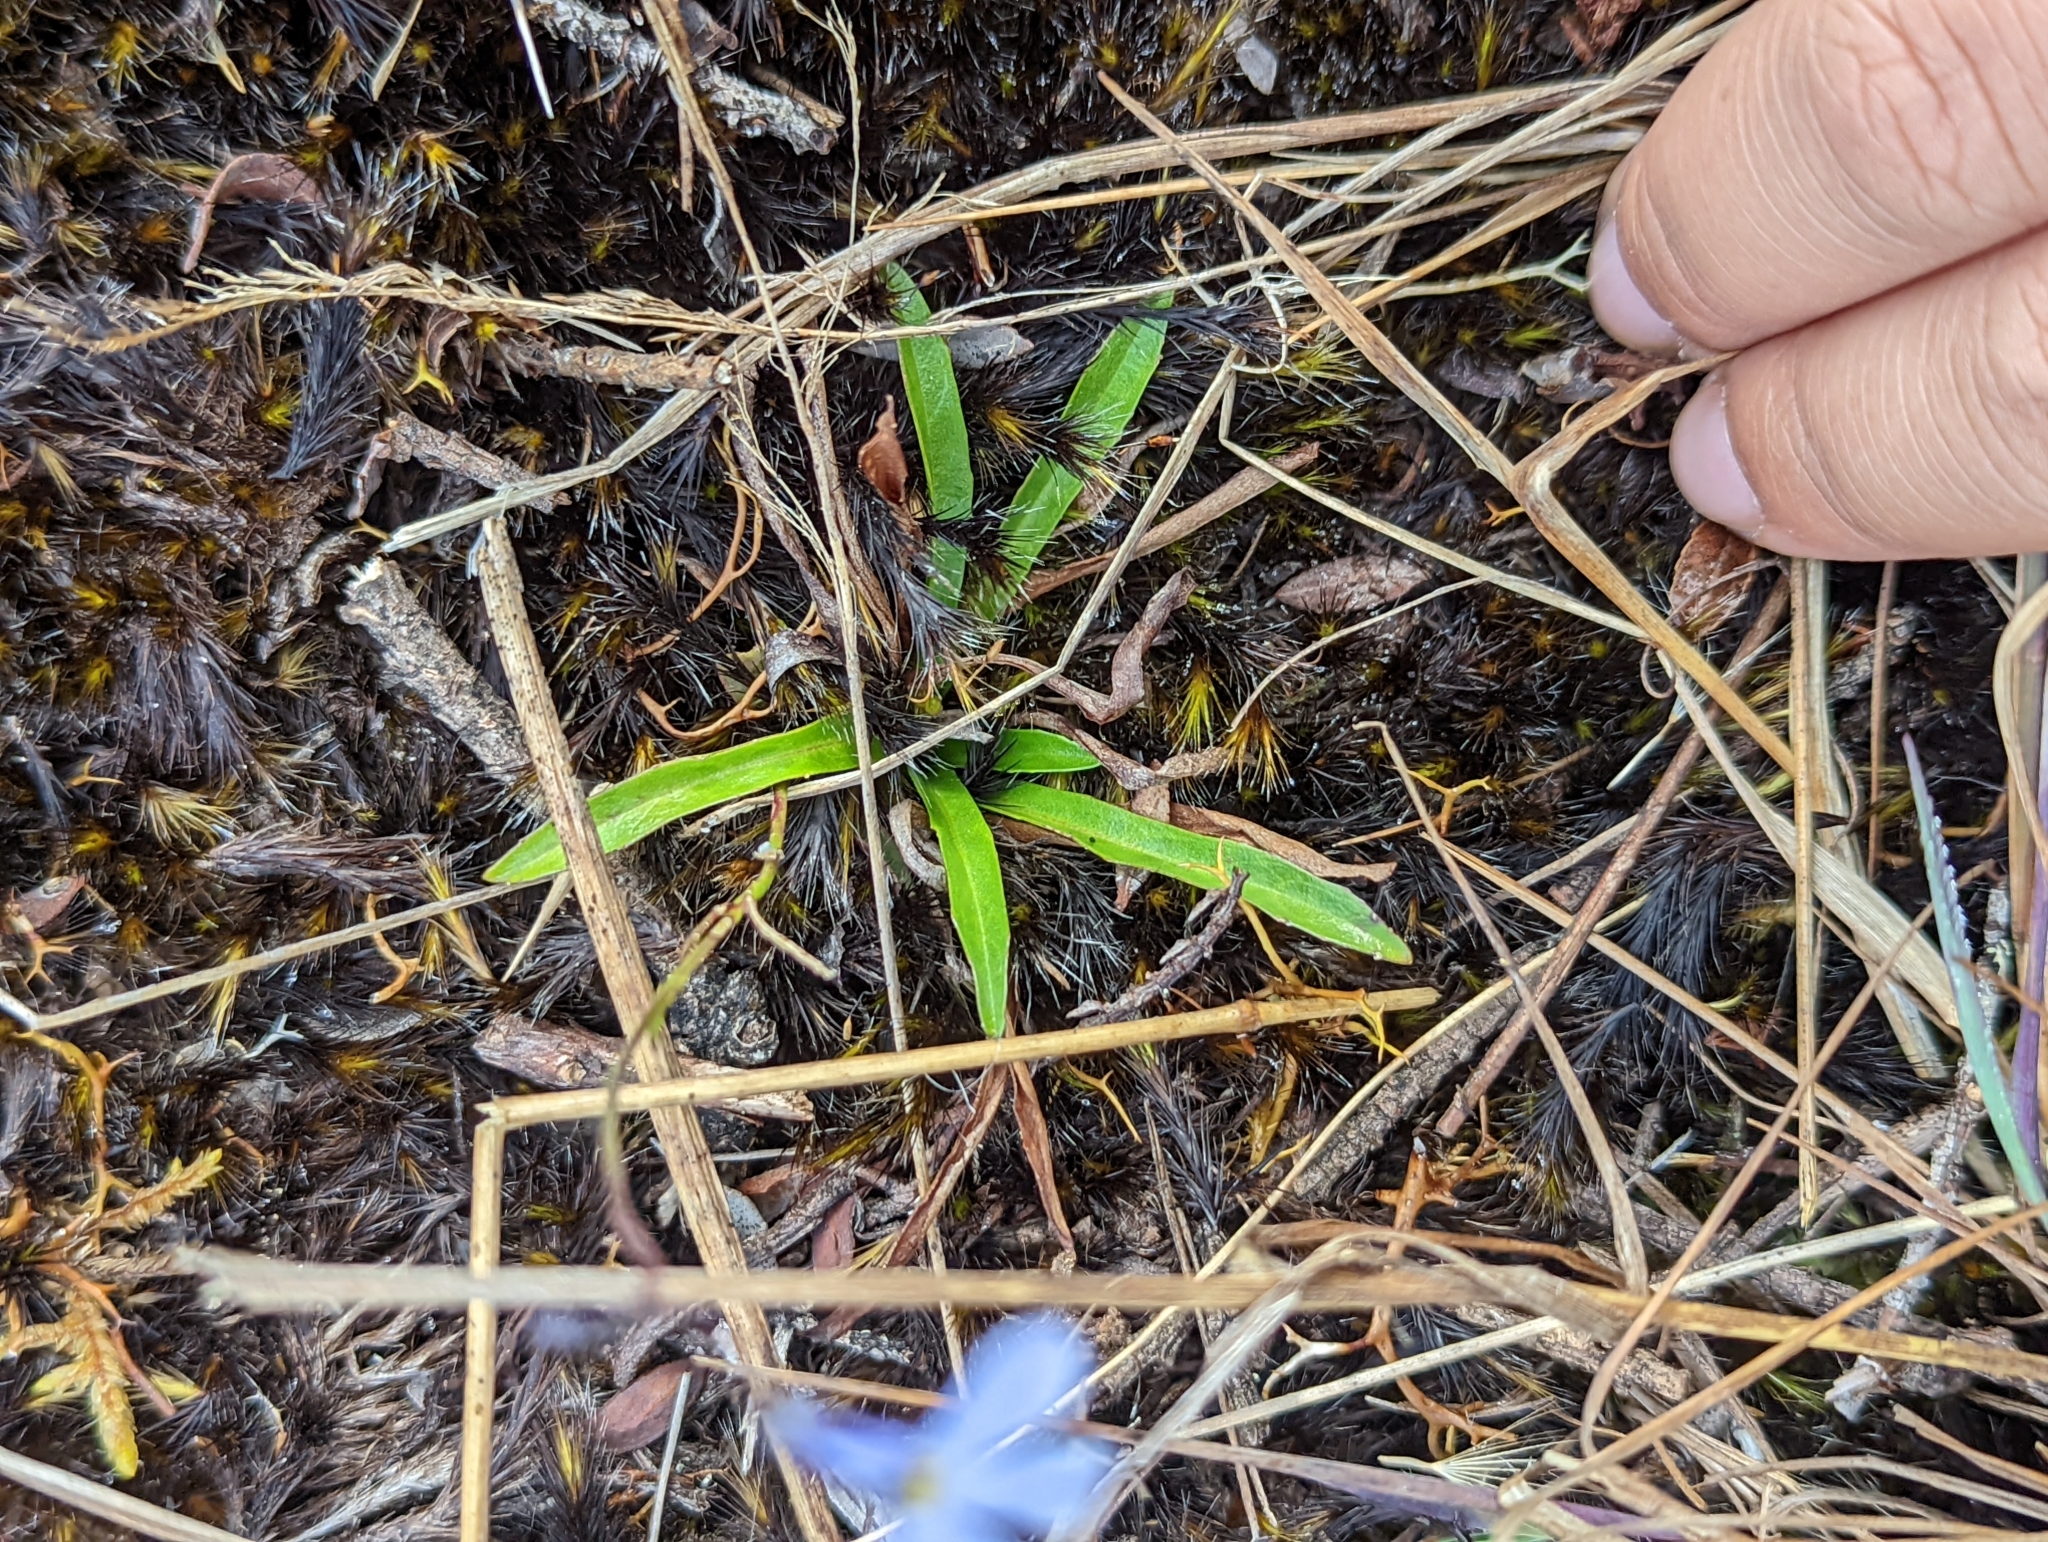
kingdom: Plantae
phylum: Tracheophyta
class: Magnoliopsida
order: Asterales
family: Campanulaceae
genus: Lobelia
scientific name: Lobelia tenera
